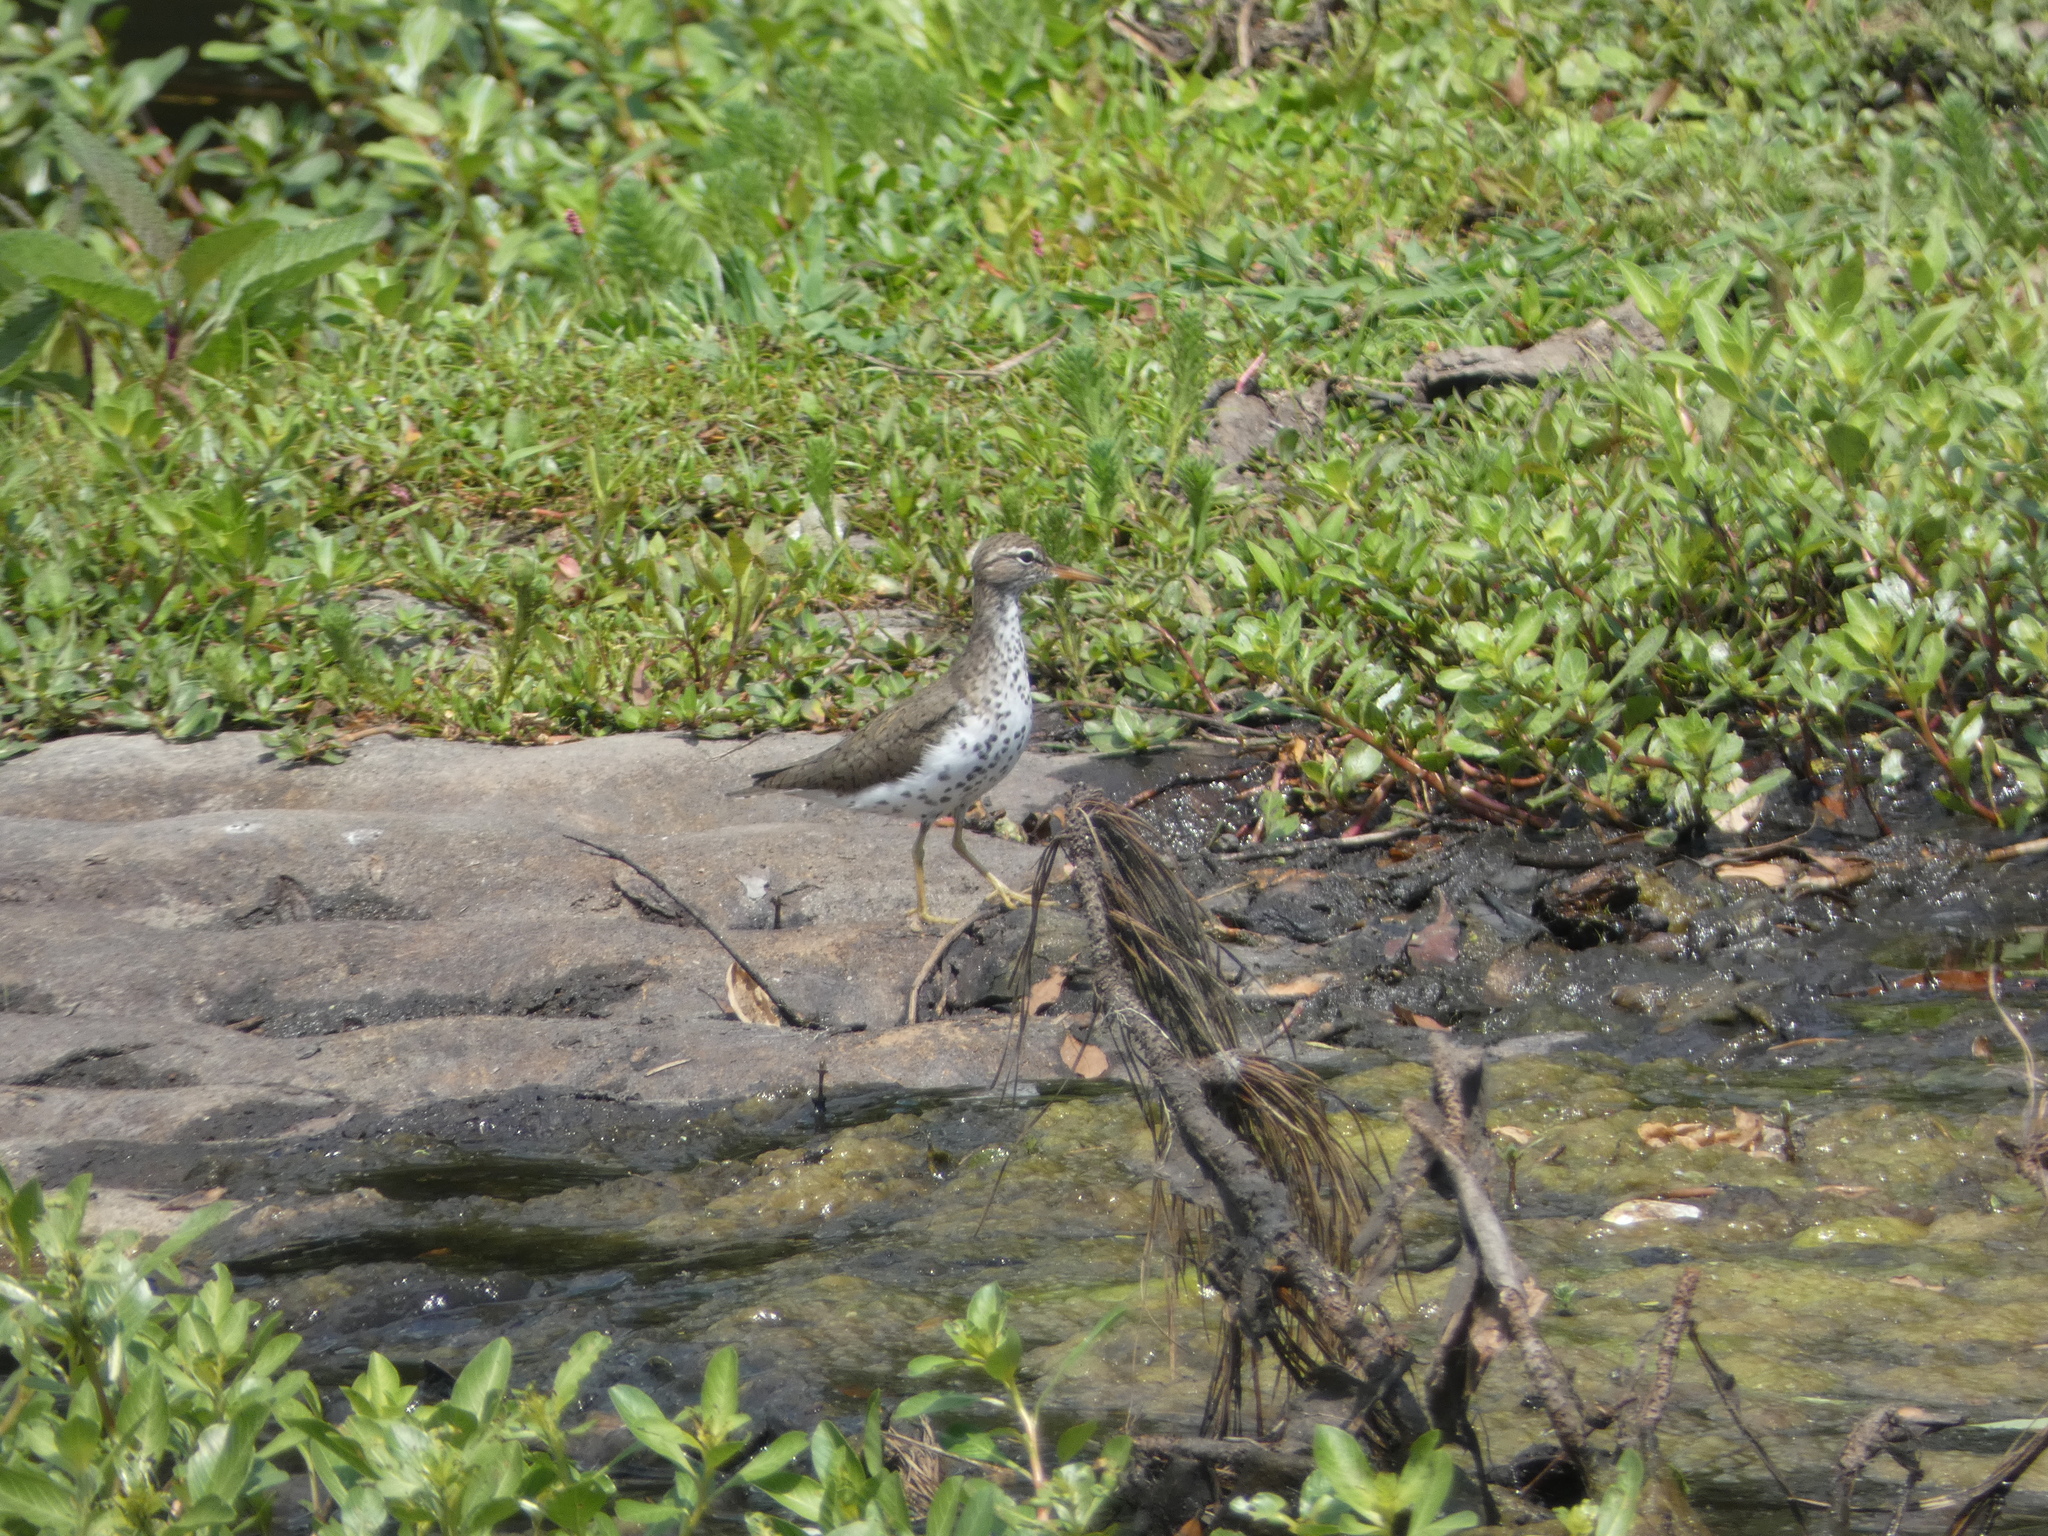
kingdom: Animalia
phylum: Chordata
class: Aves
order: Charadriiformes
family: Scolopacidae
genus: Actitis
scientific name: Actitis macularius
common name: Spotted sandpiper
